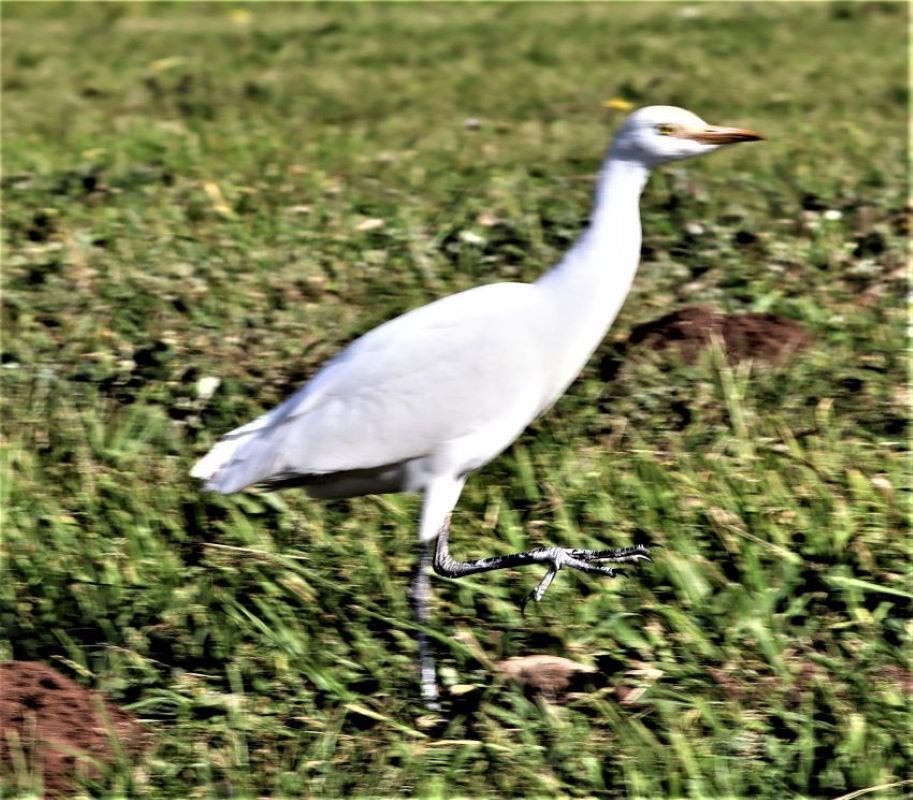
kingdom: Animalia
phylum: Chordata
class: Aves
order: Pelecaniformes
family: Ardeidae
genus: Bubulcus
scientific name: Bubulcus ibis
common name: Cattle egret
